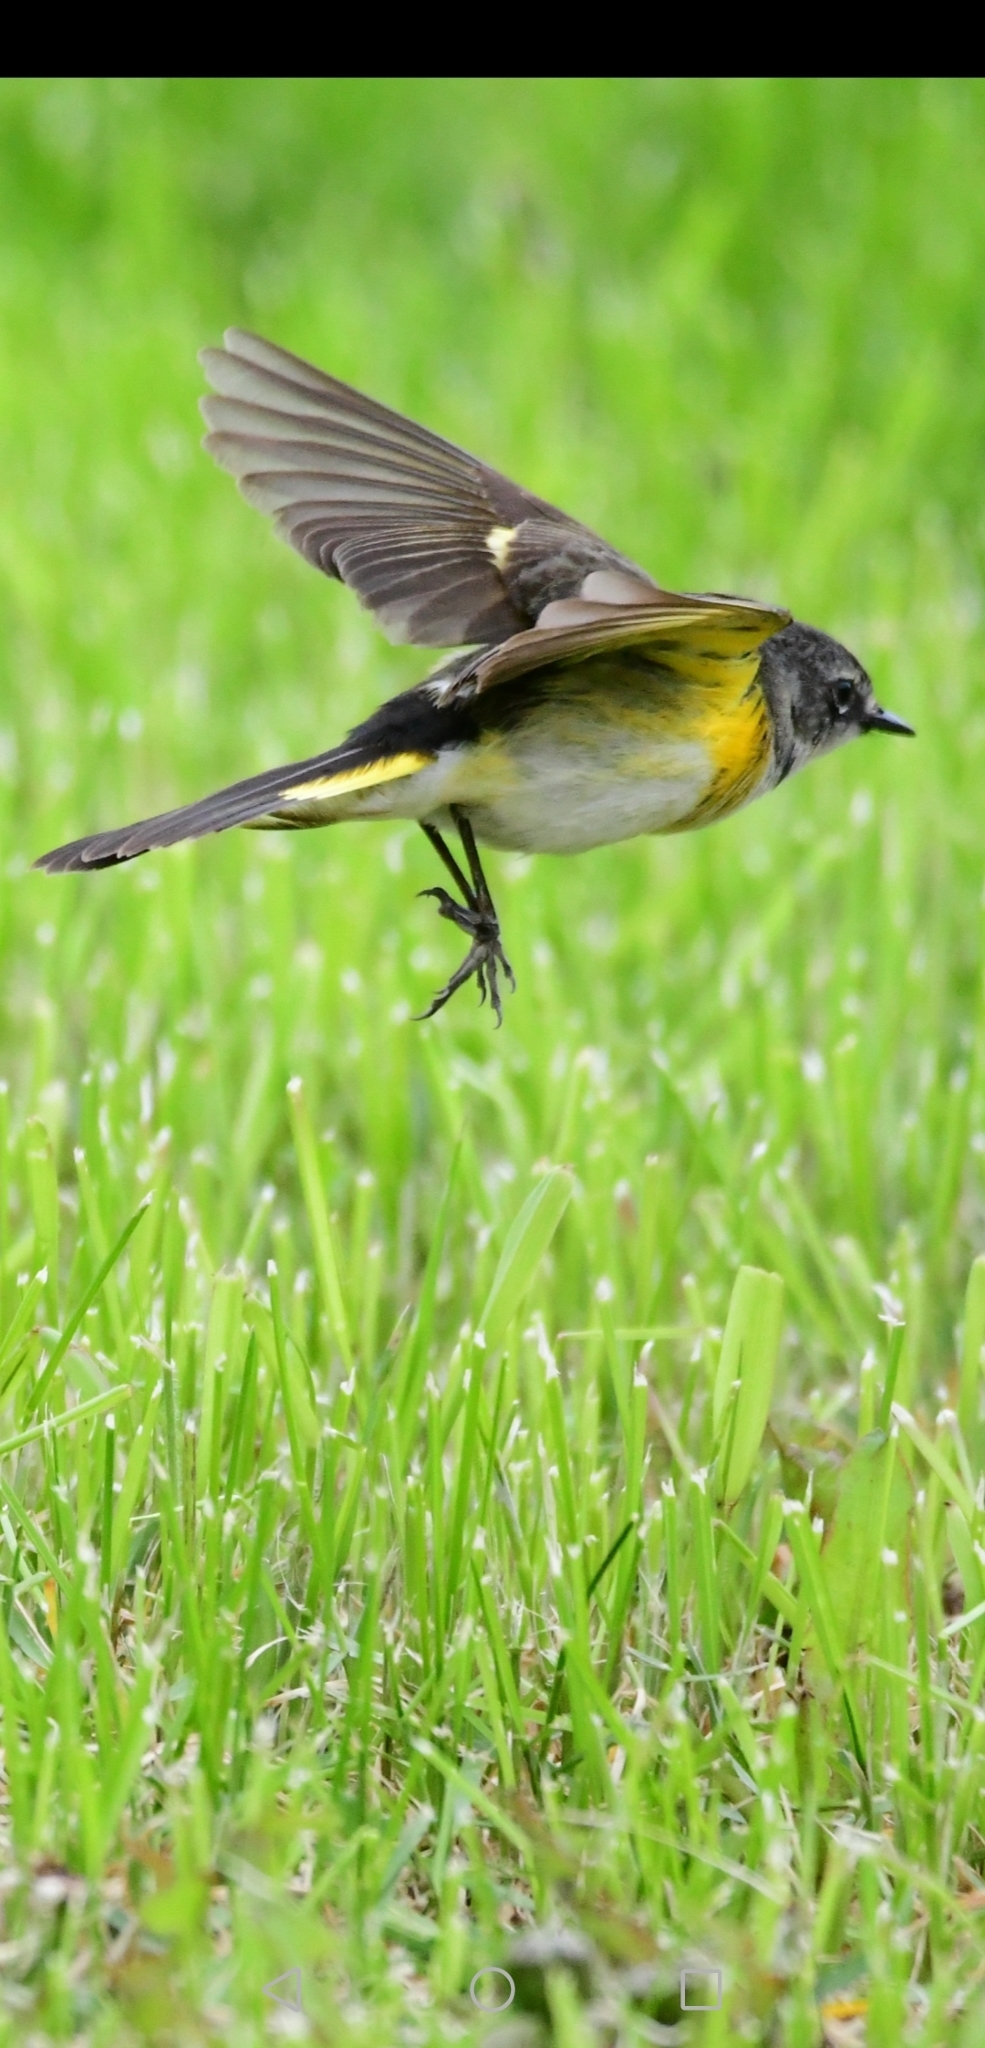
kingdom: Animalia
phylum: Chordata
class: Aves
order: Passeriformes
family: Parulidae
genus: Setophaga
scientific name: Setophaga ruticilla
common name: American redstart
